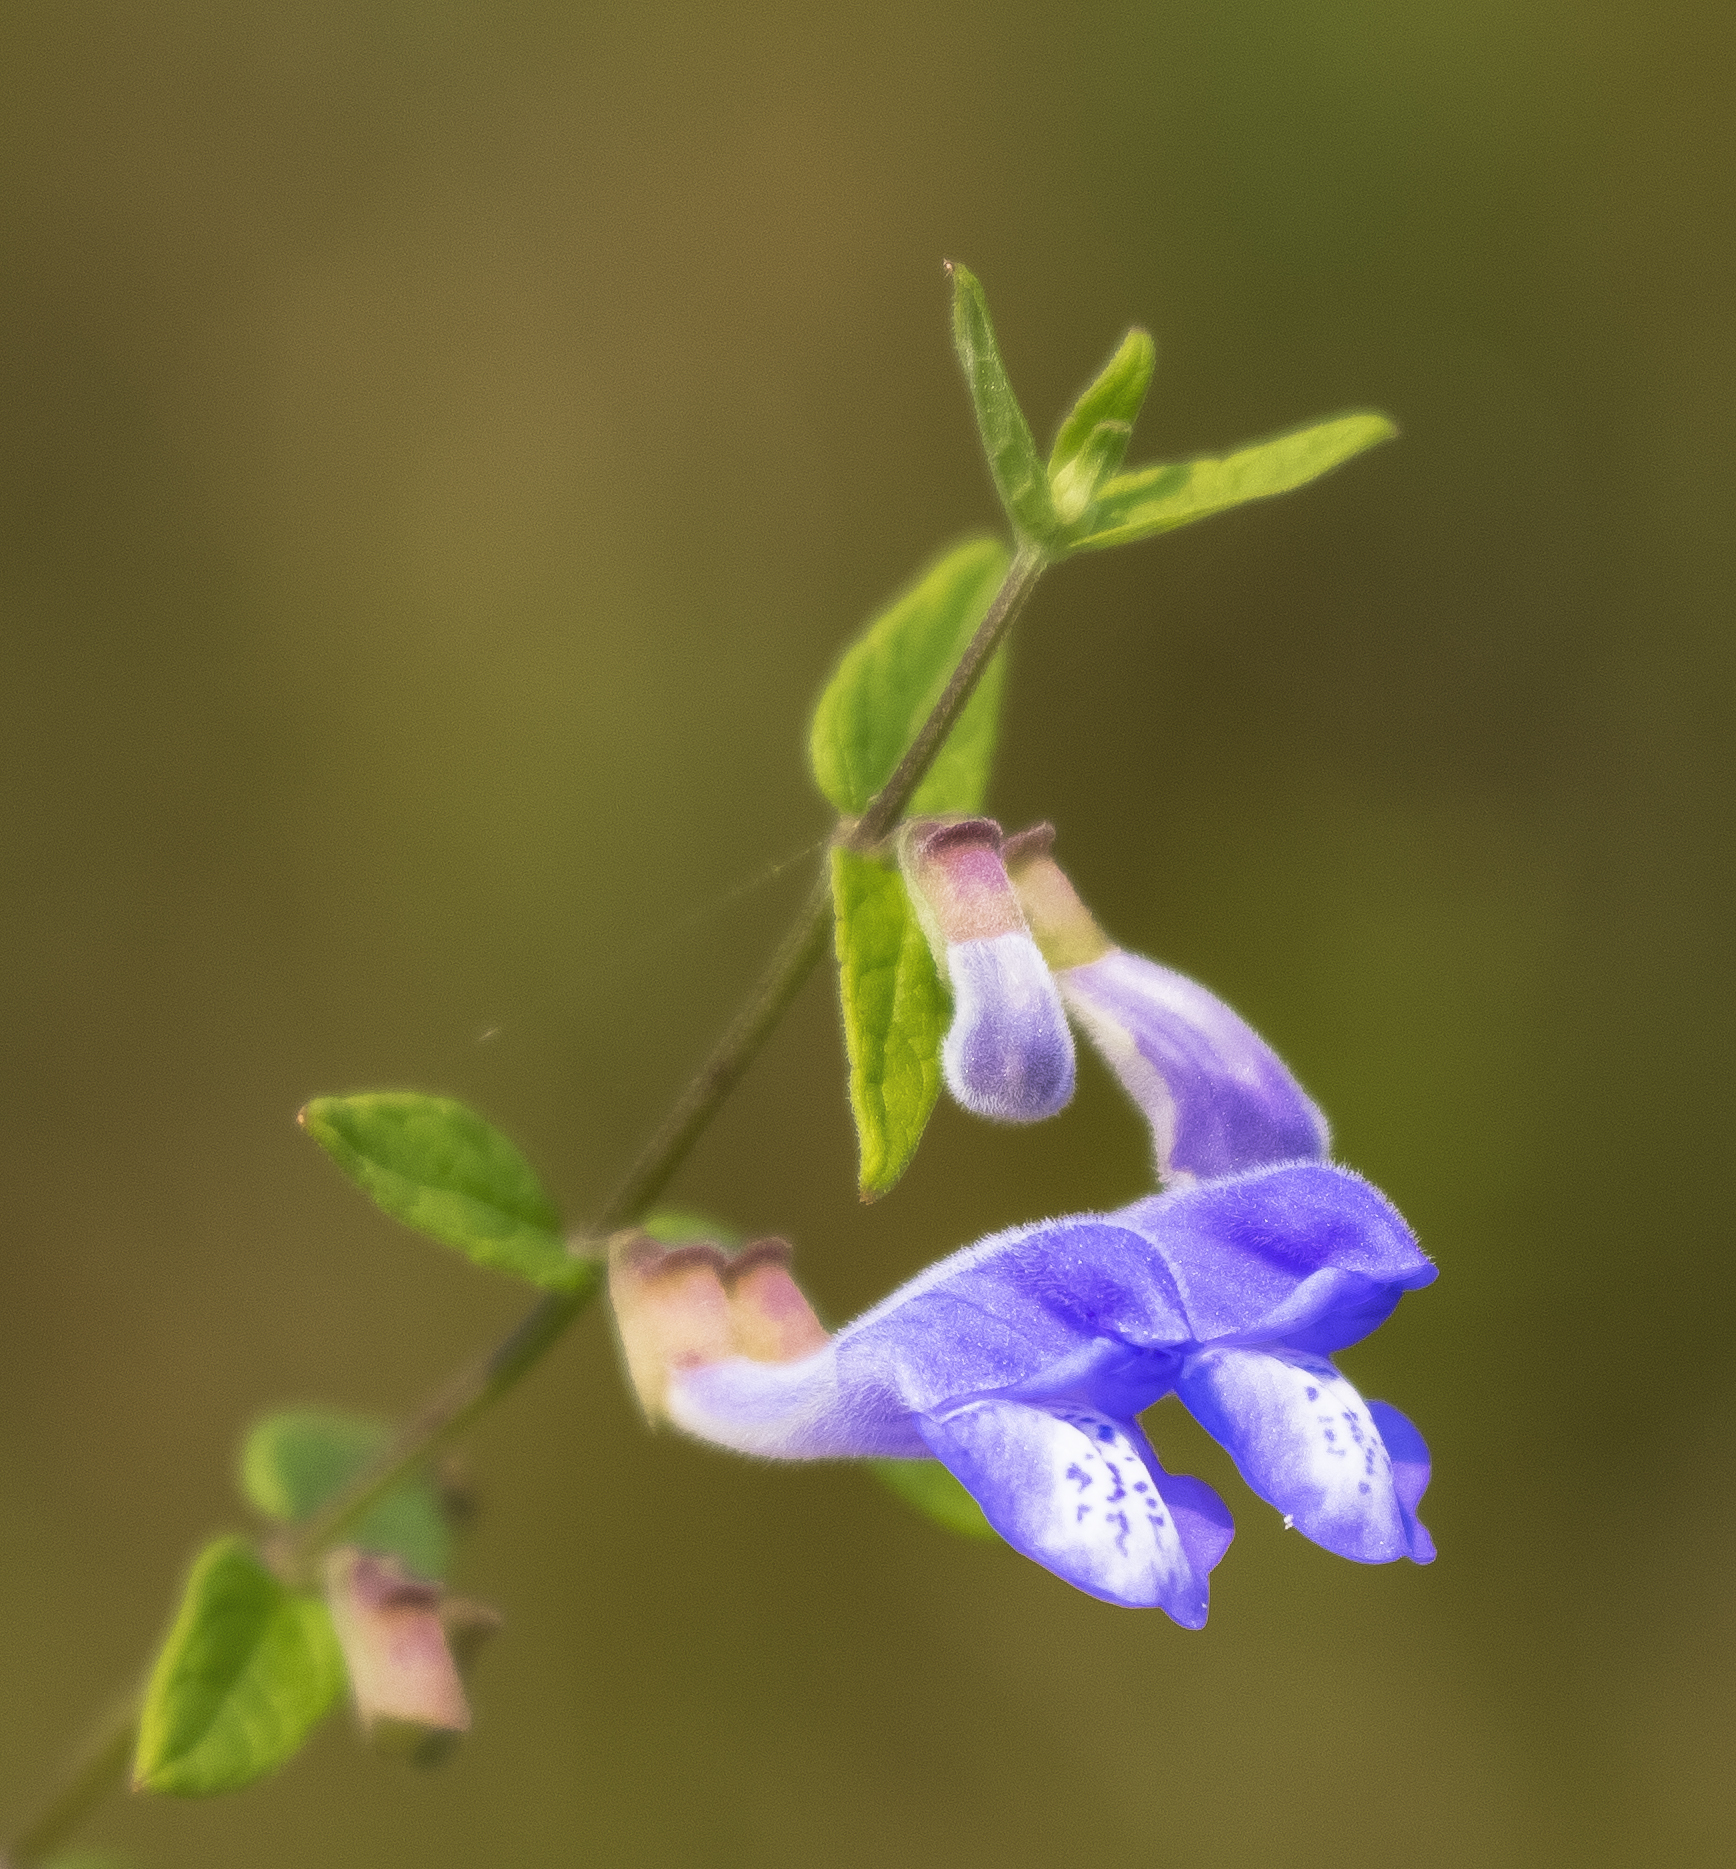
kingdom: Plantae
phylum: Tracheophyta
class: Magnoliopsida
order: Lamiales
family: Lamiaceae
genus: Scutellaria
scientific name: Scutellaria galericulata
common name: Skullcap
